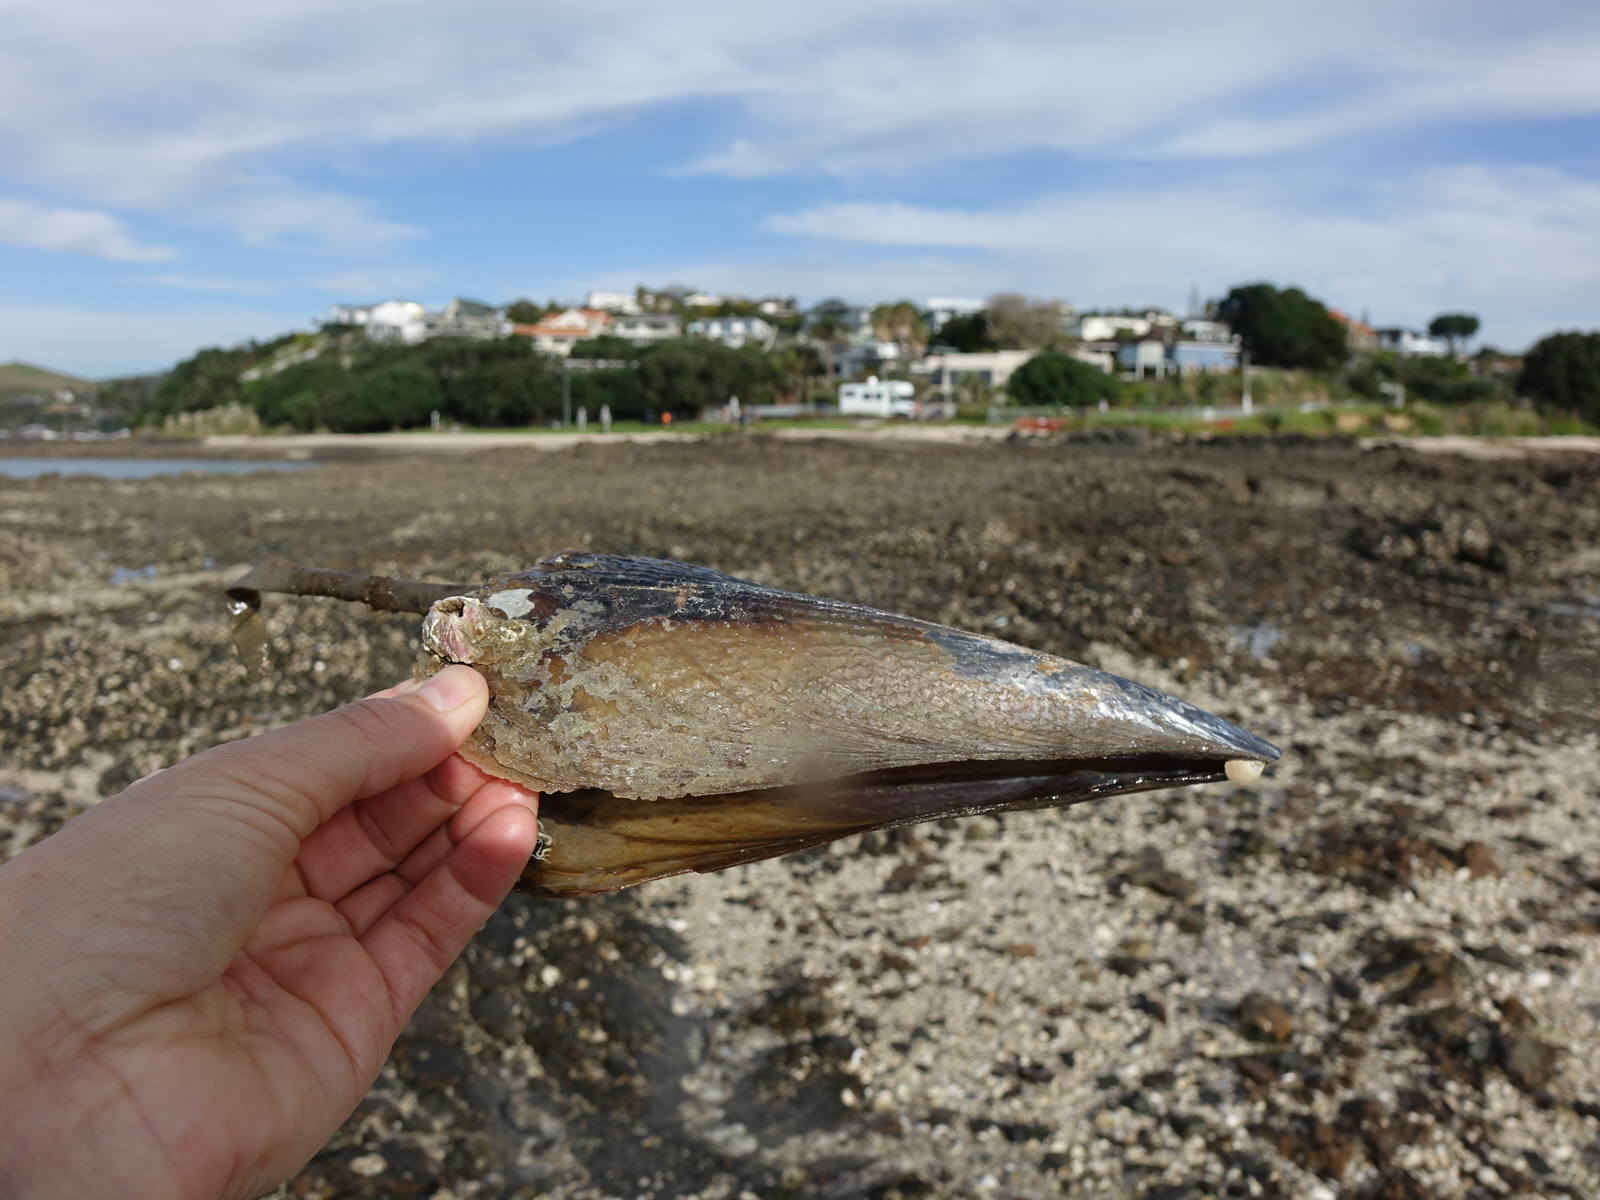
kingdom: Animalia
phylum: Mollusca
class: Bivalvia
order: Ostreida
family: Pinnidae
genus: Atrina
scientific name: Atrina zelandica
